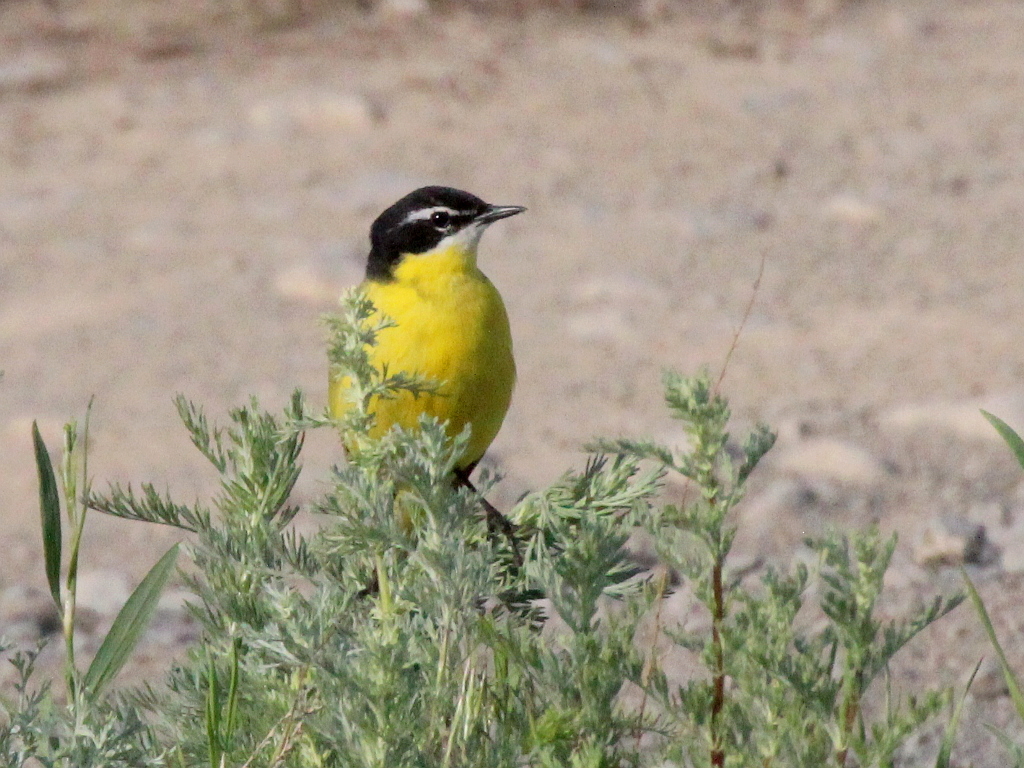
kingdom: Animalia
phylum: Chordata
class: Aves
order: Passeriformes
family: Motacillidae
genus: Motacilla
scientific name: Motacilla flava
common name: Western yellow wagtail
